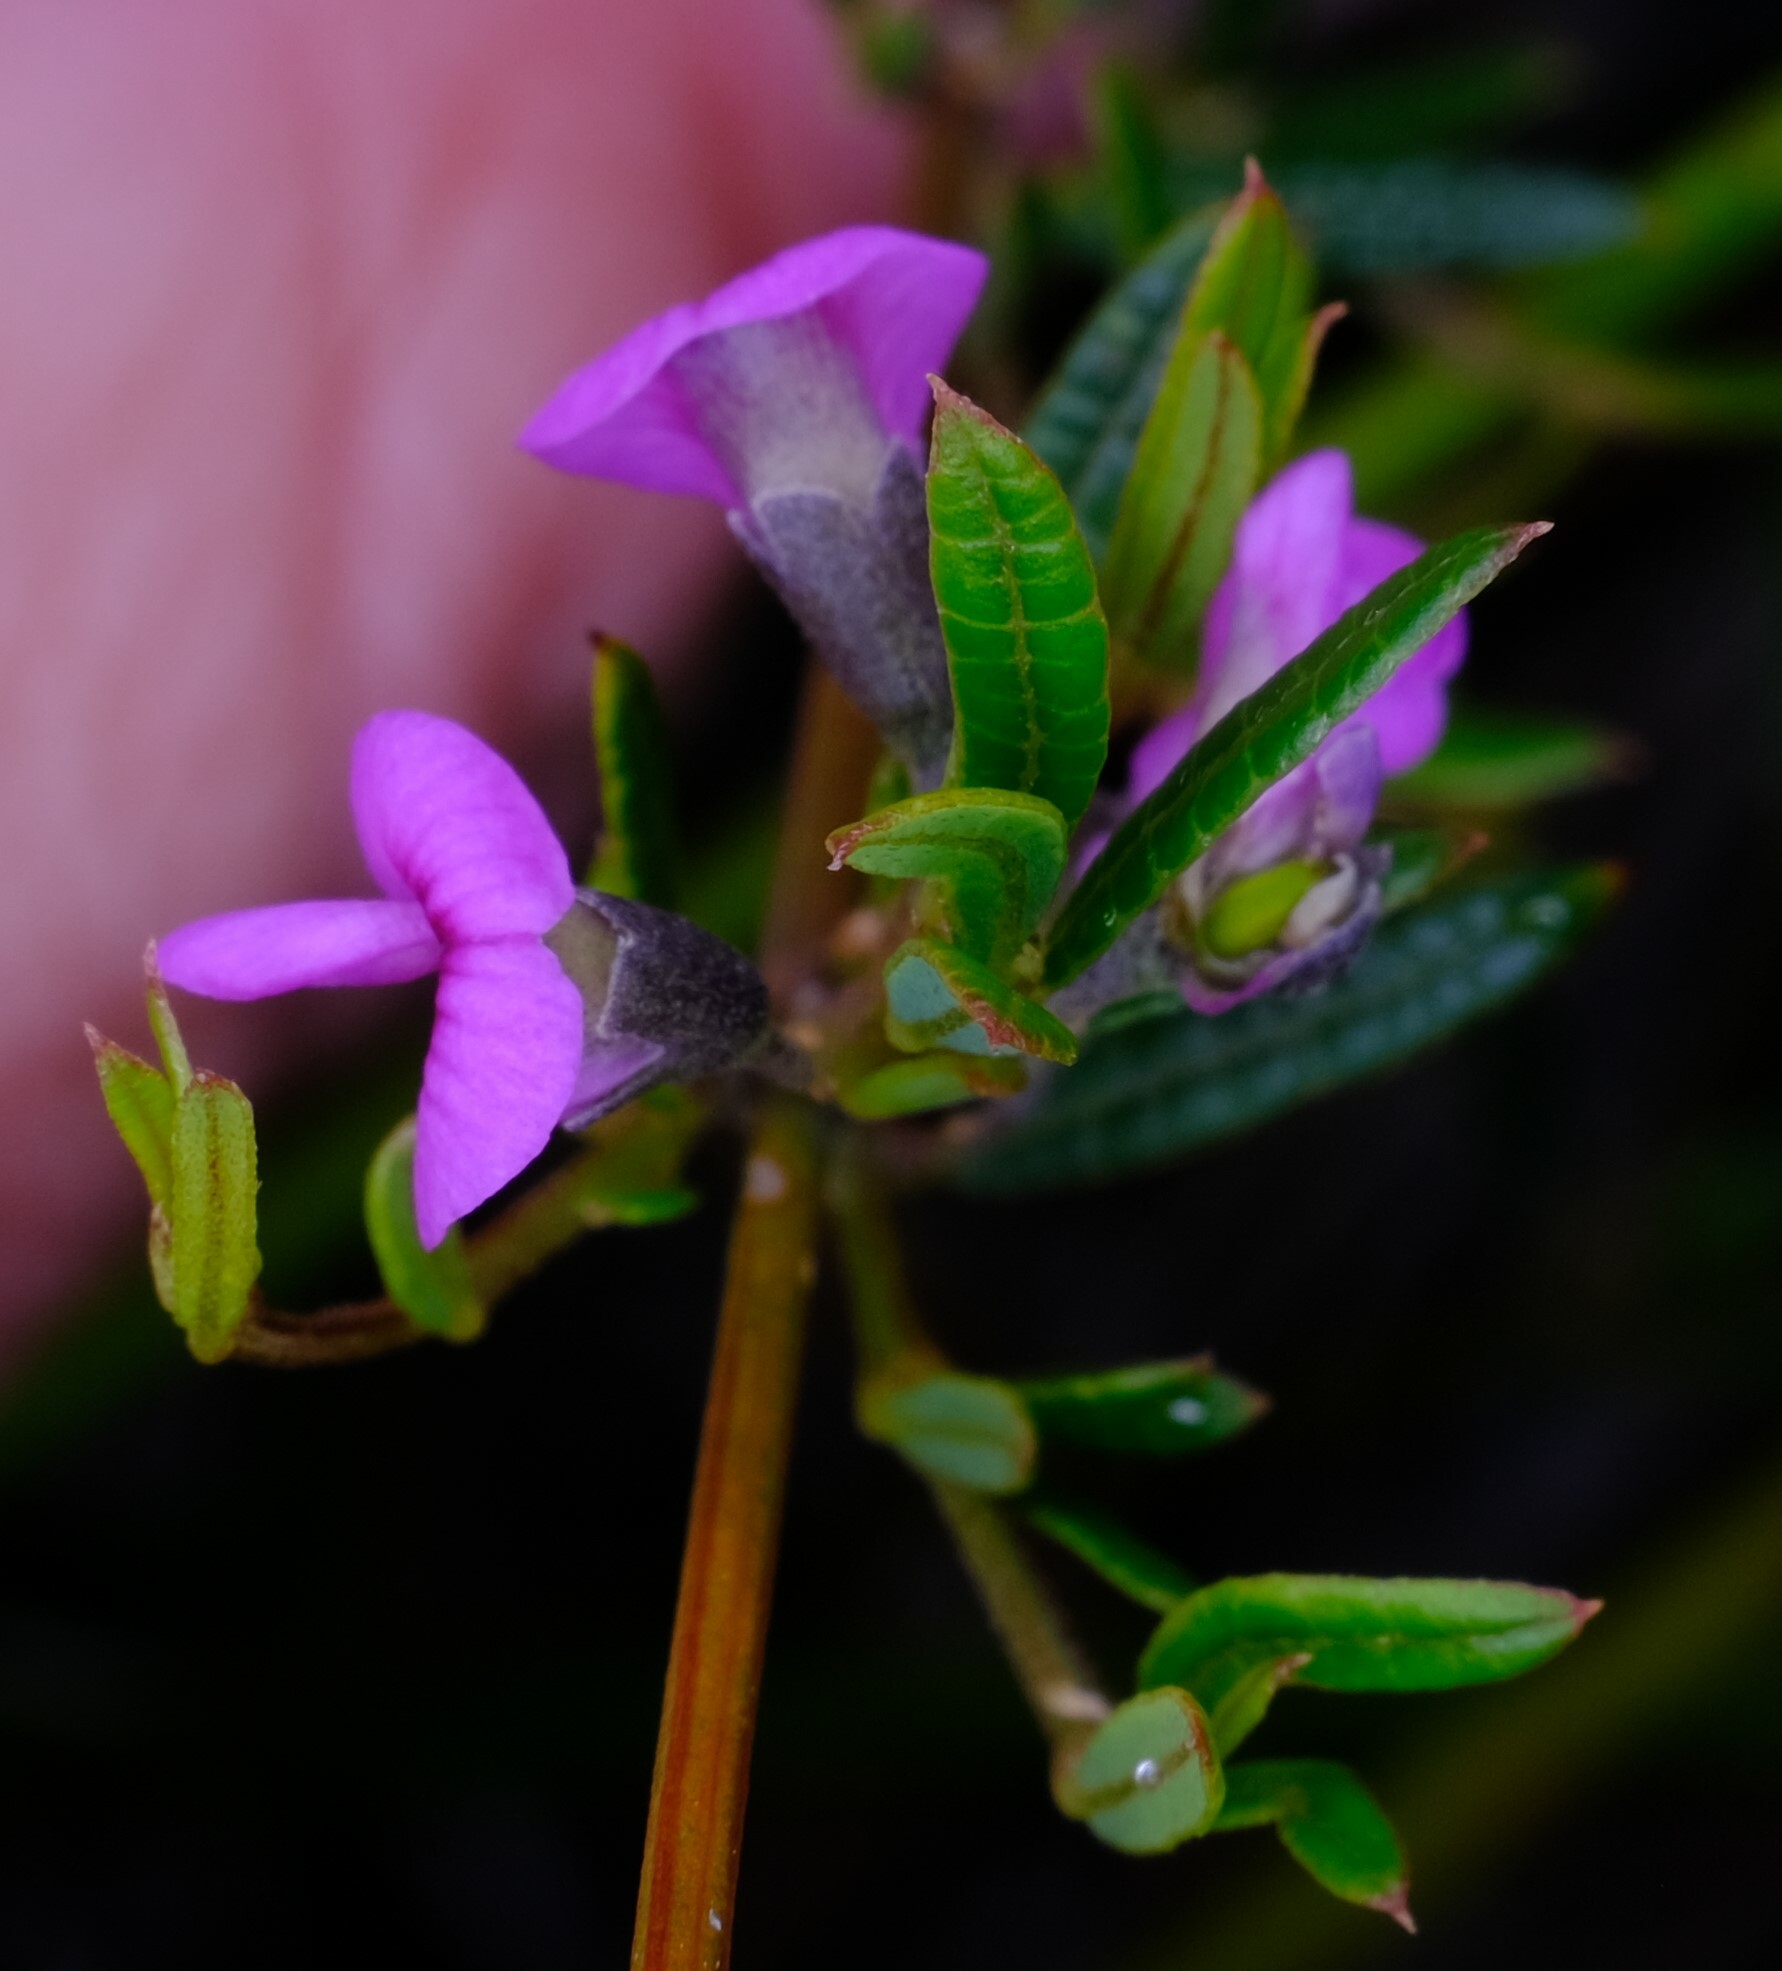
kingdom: Plantae
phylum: Tracheophyta
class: Magnoliopsida
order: Fabales
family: Fabaceae
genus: Mirbelia
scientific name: Mirbelia rubiifolia
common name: Heathy mirbelia
